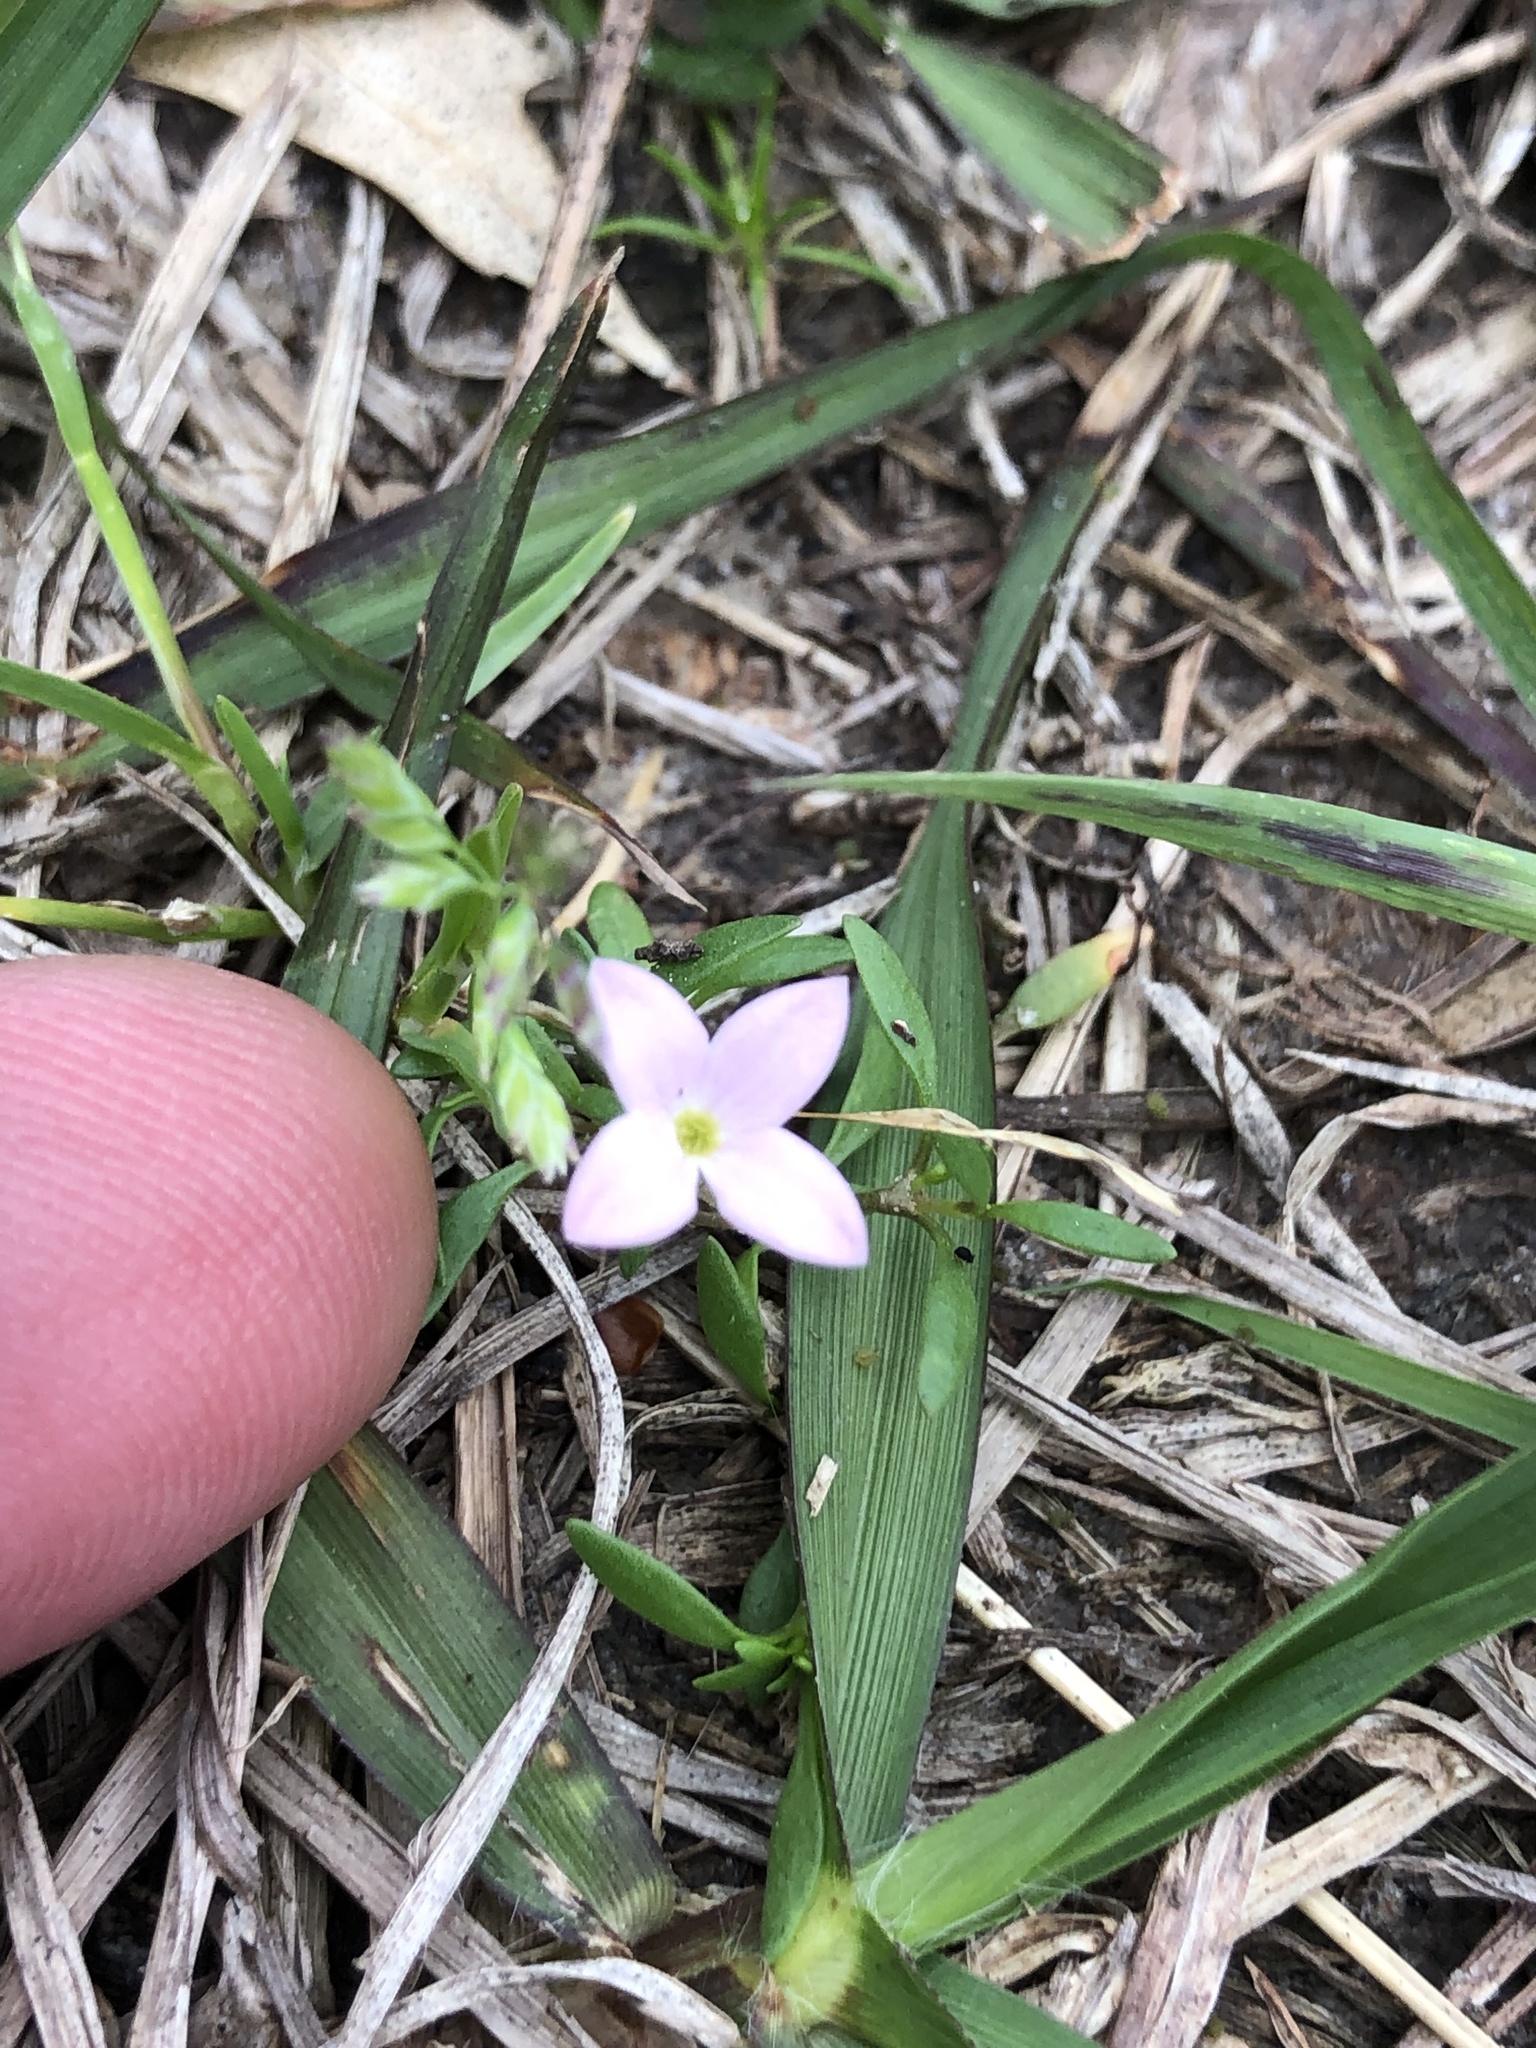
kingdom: Plantae
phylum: Tracheophyta
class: Magnoliopsida
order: Gentianales
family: Rubiaceae
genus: Houstonia
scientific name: Houstonia rosea
